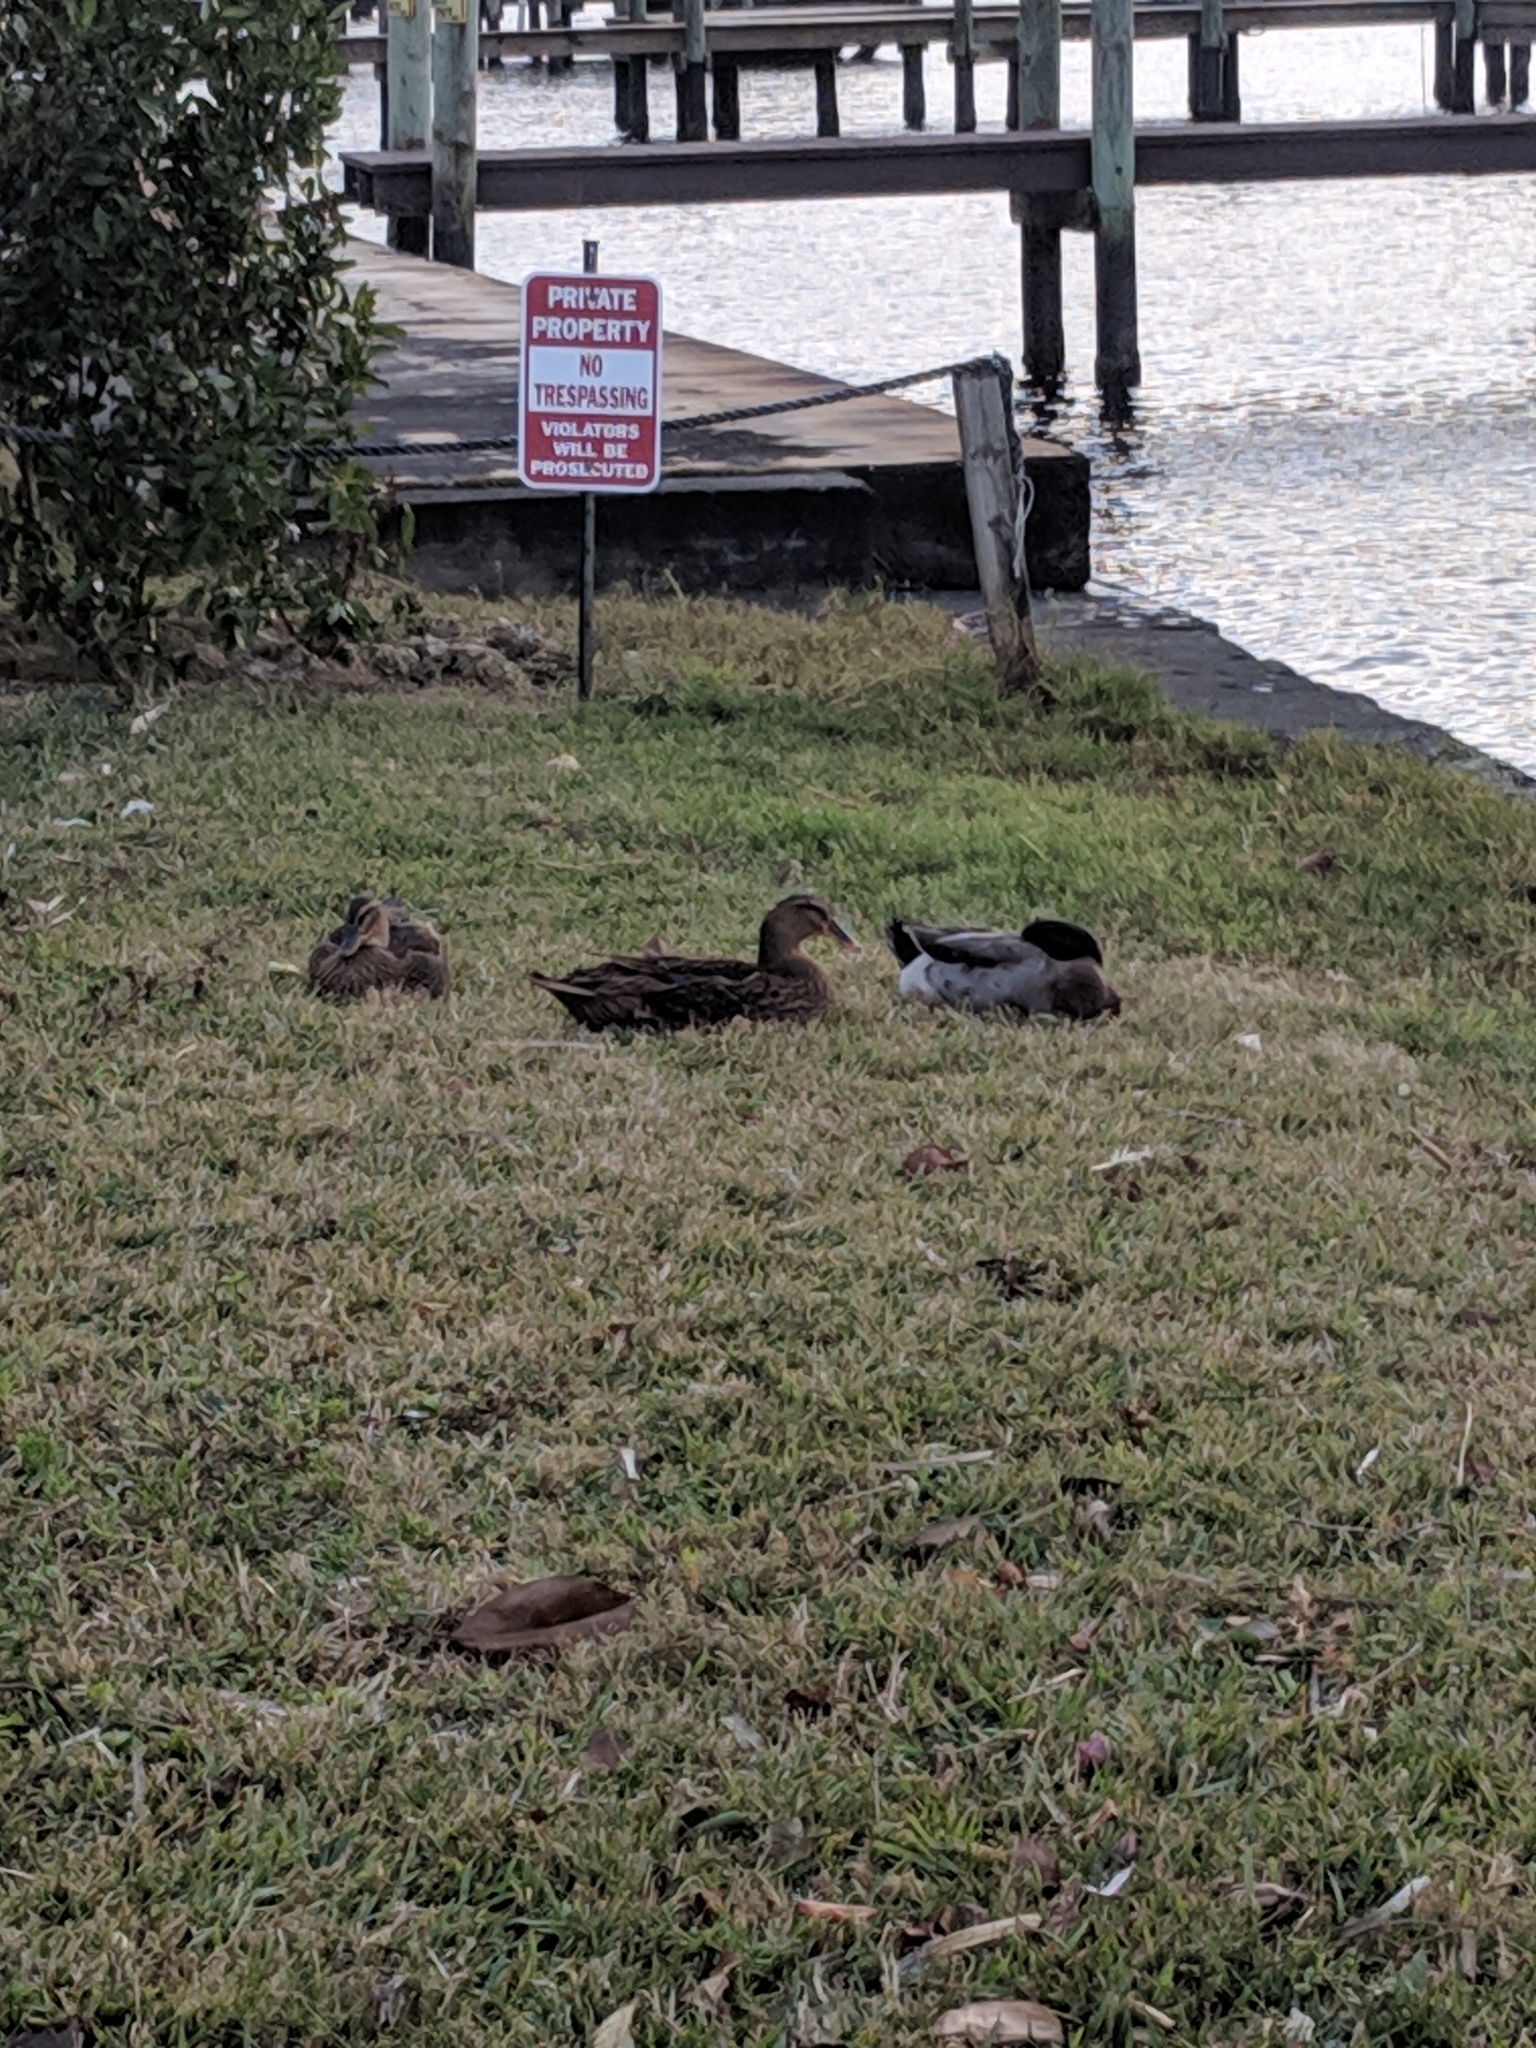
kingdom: Animalia
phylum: Chordata
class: Aves
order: Anseriformes
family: Anatidae
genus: Anas
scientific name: Anas platyrhynchos
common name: Mallard
